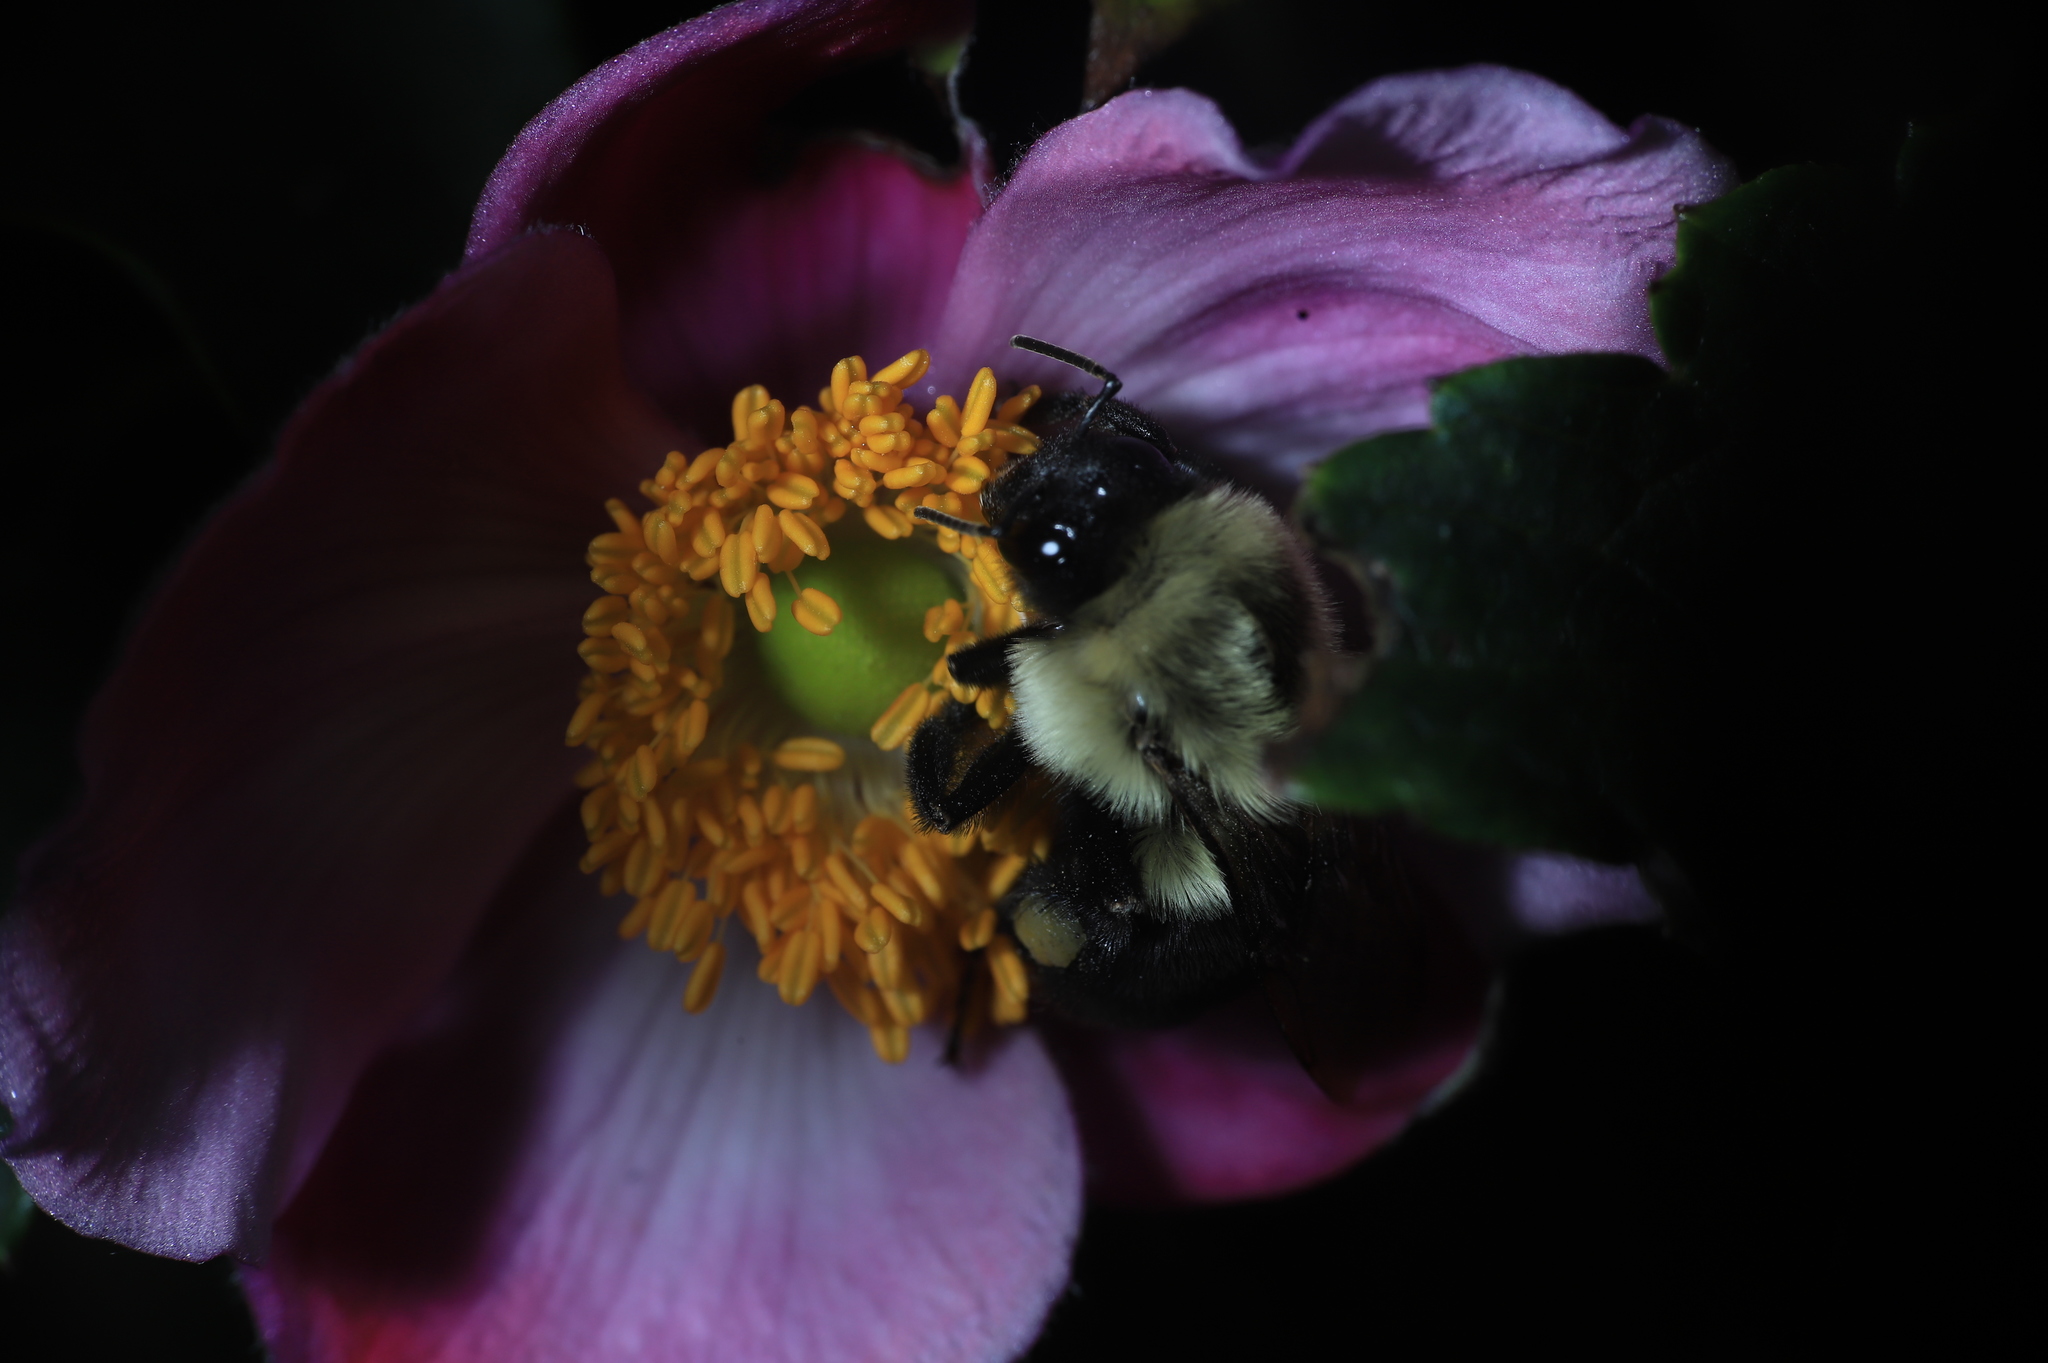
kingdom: Animalia
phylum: Arthropoda
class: Insecta
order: Hymenoptera
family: Apidae
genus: Bombus
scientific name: Bombus impatiens
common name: Common eastern bumble bee
